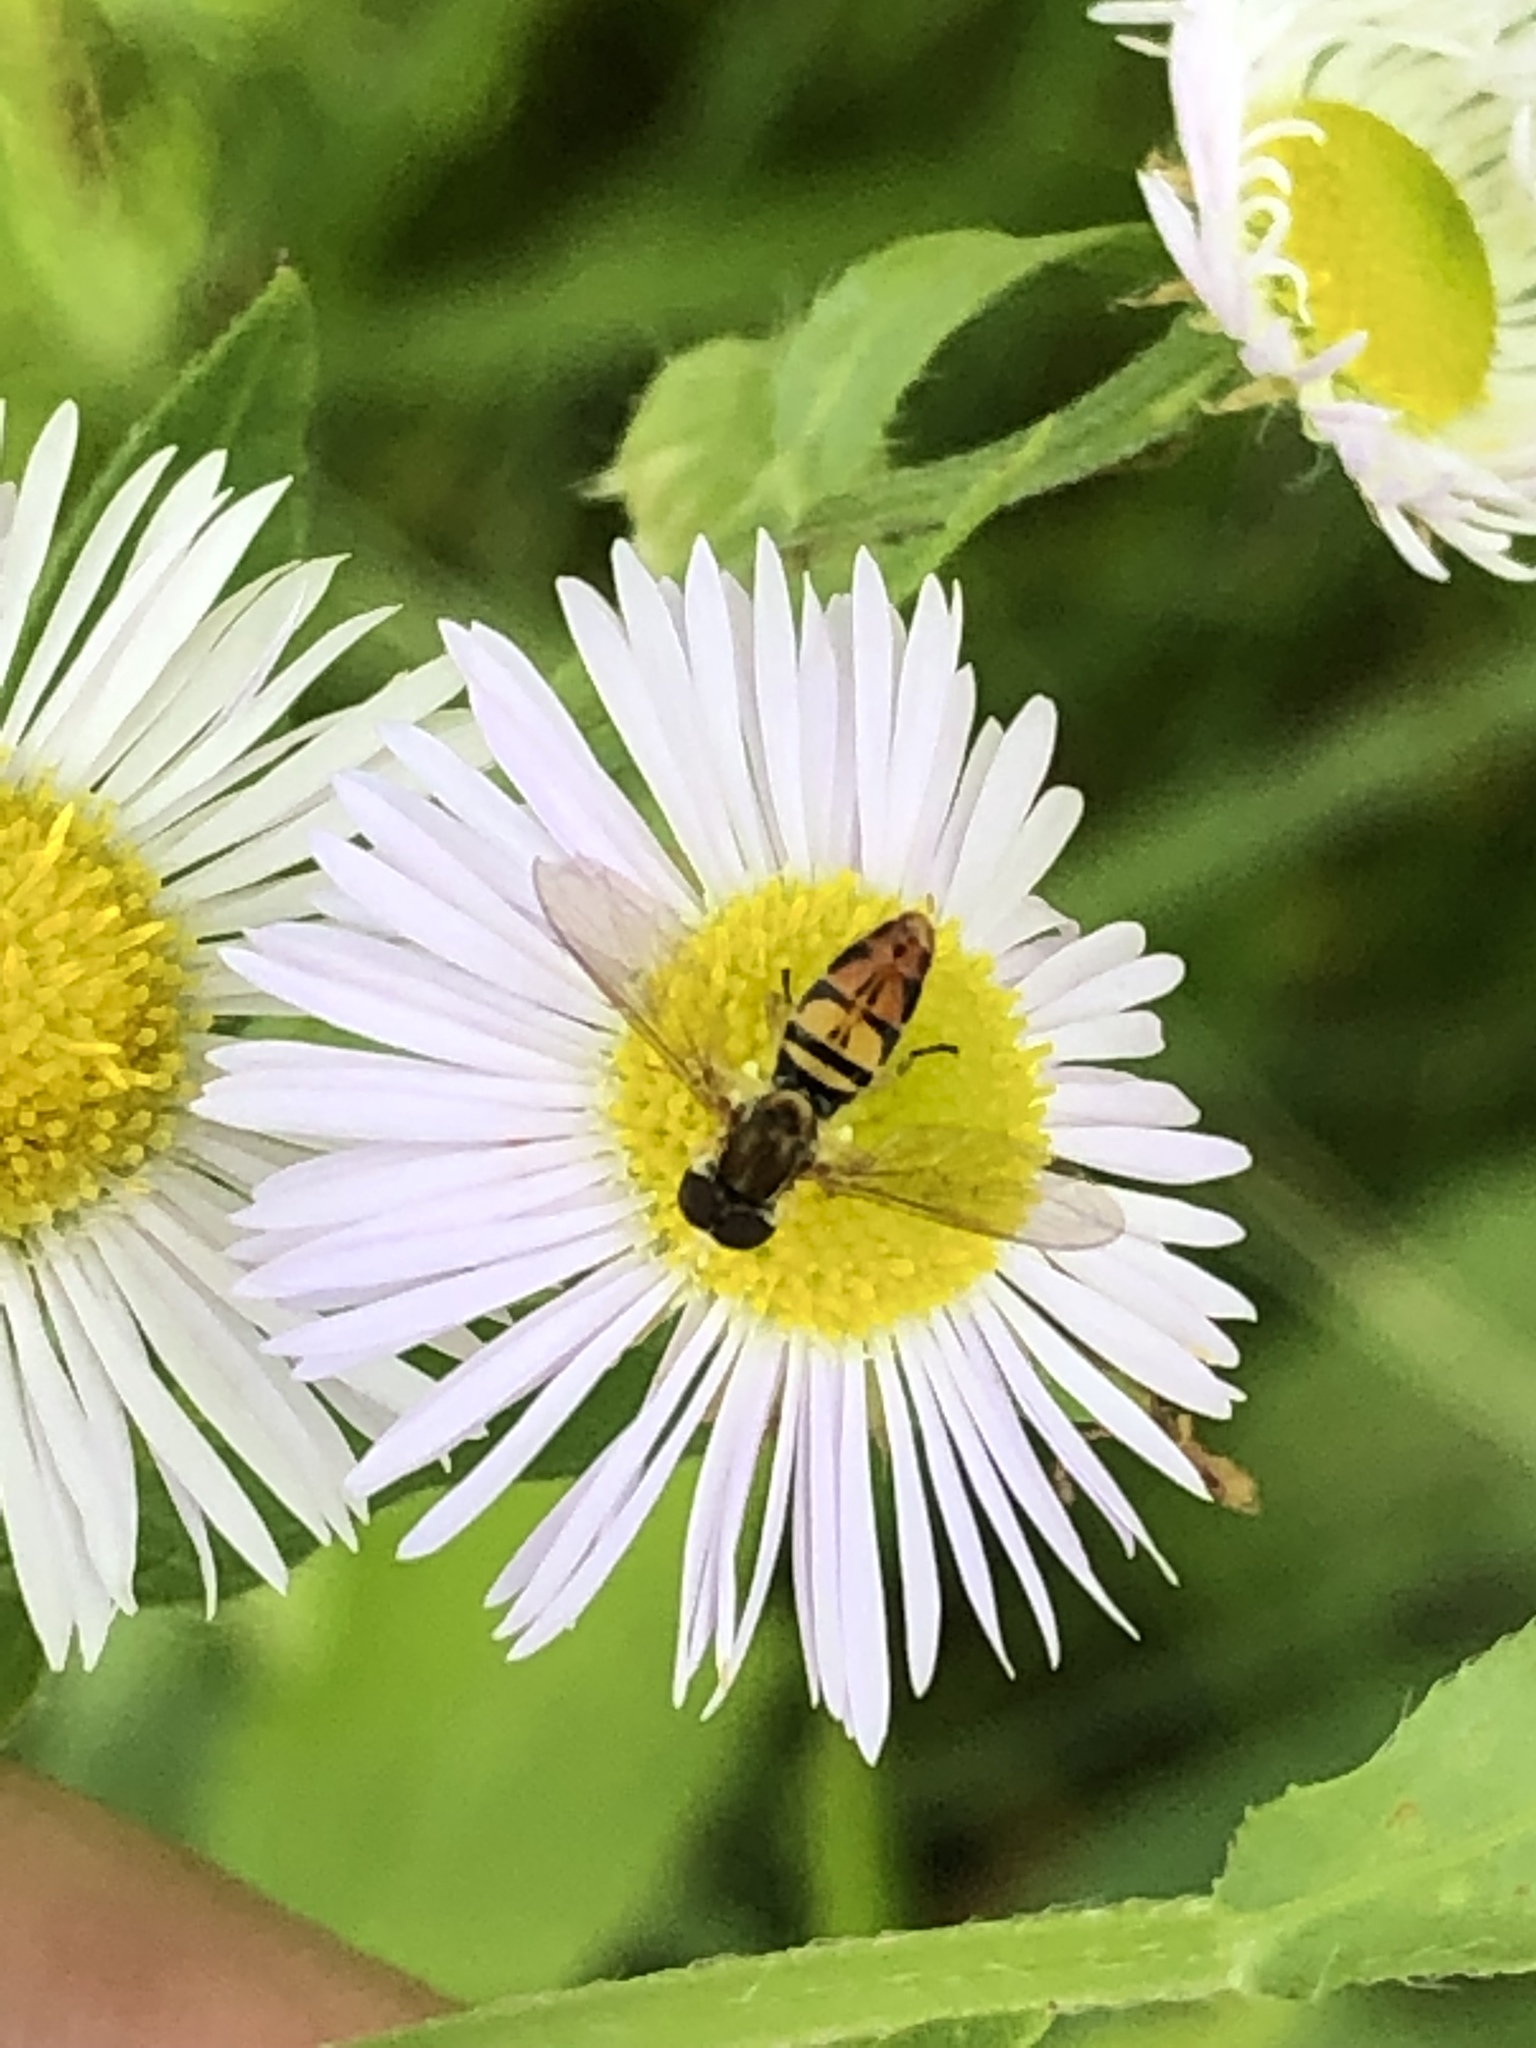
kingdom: Animalia
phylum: Arthropoda
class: Insecta
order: Diptera
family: Syrphidae
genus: Toxomerus
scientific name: Toxomerus marginatus
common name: Syrphid fly
